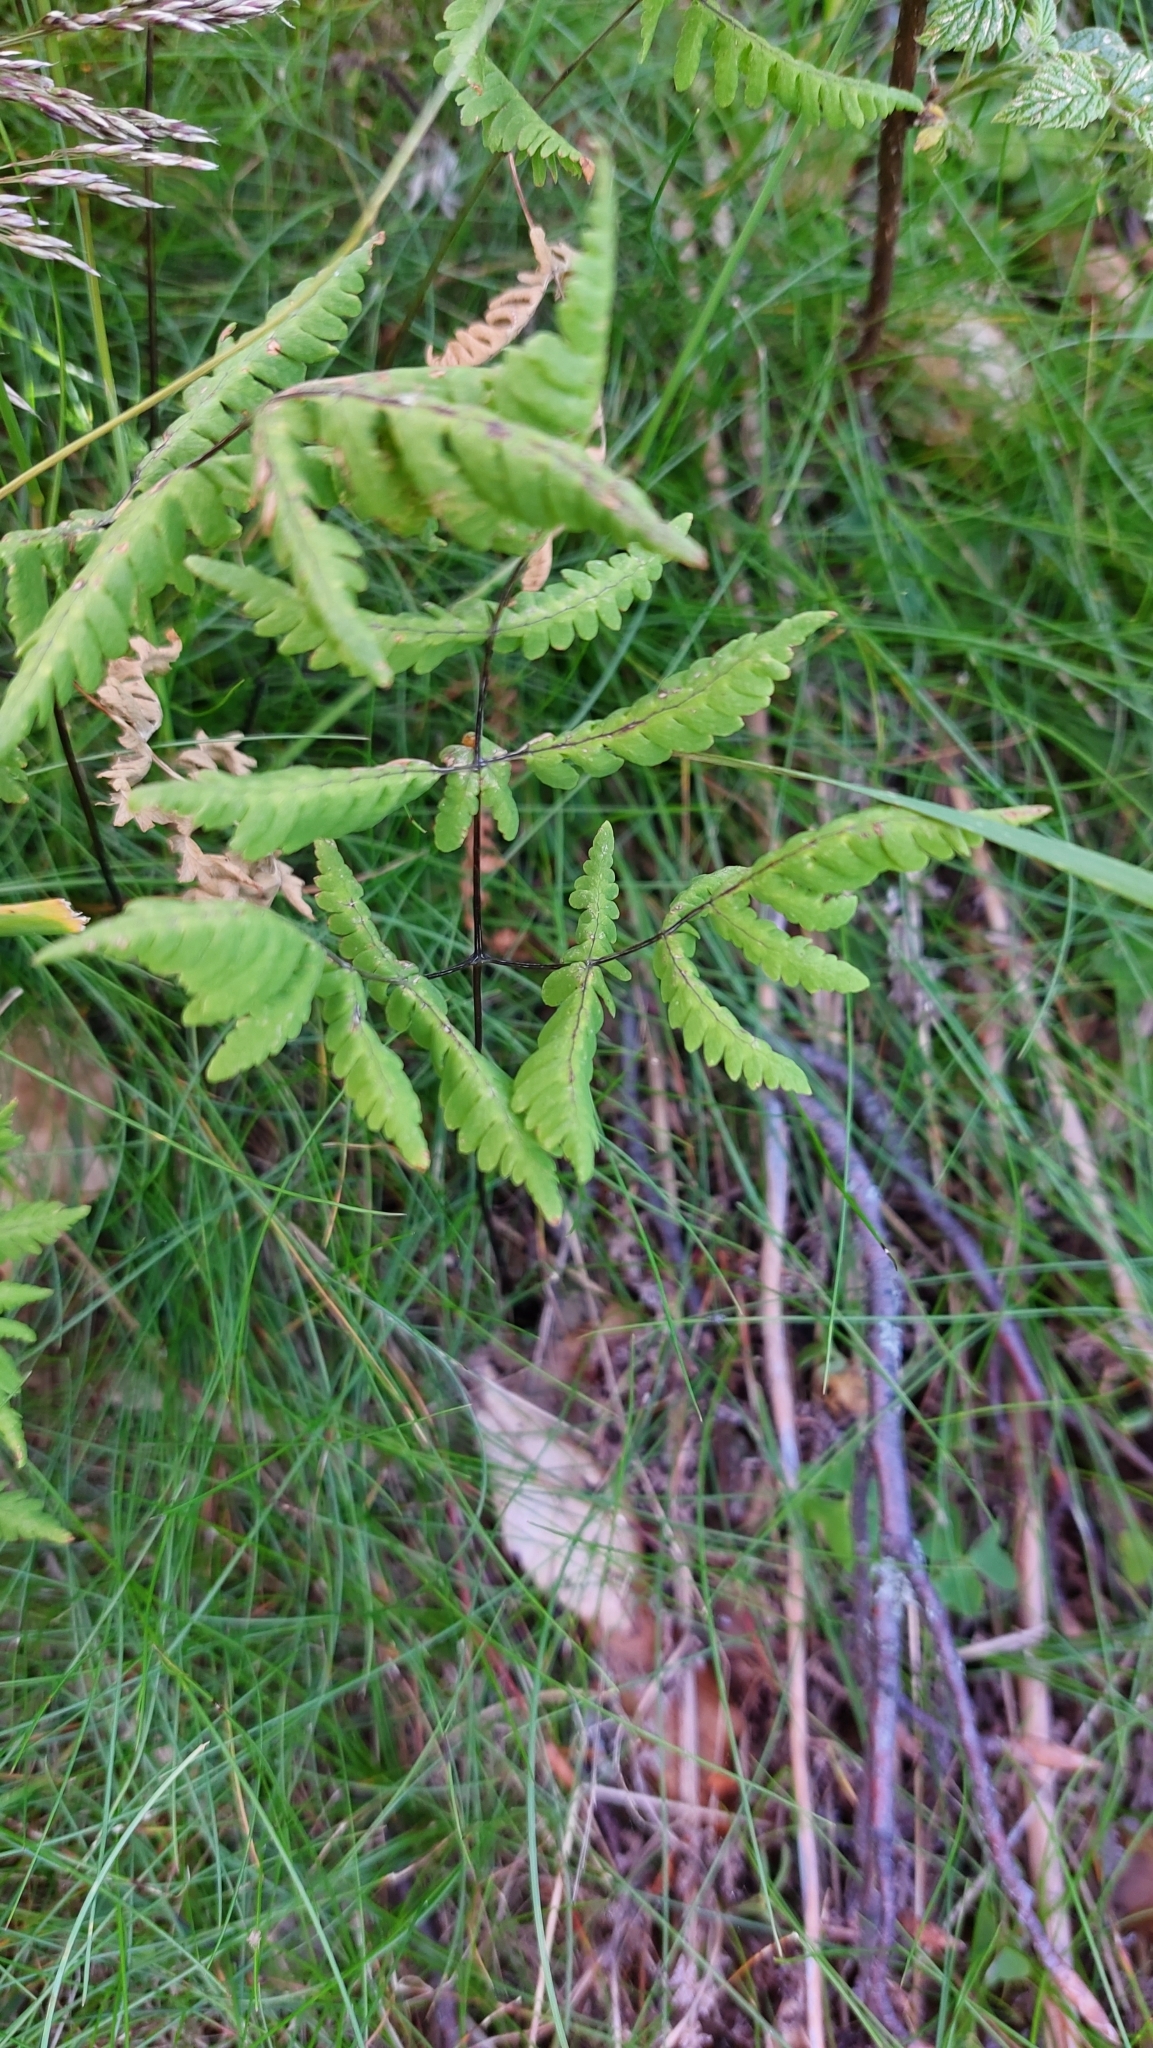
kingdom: Plantae
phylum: Tracheophyta
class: Polypodiopsida
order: Polypodiales
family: Cystopteridaceae
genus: Gymnocarpium
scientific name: Gymnocarpium dryopteris
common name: Oak fern
